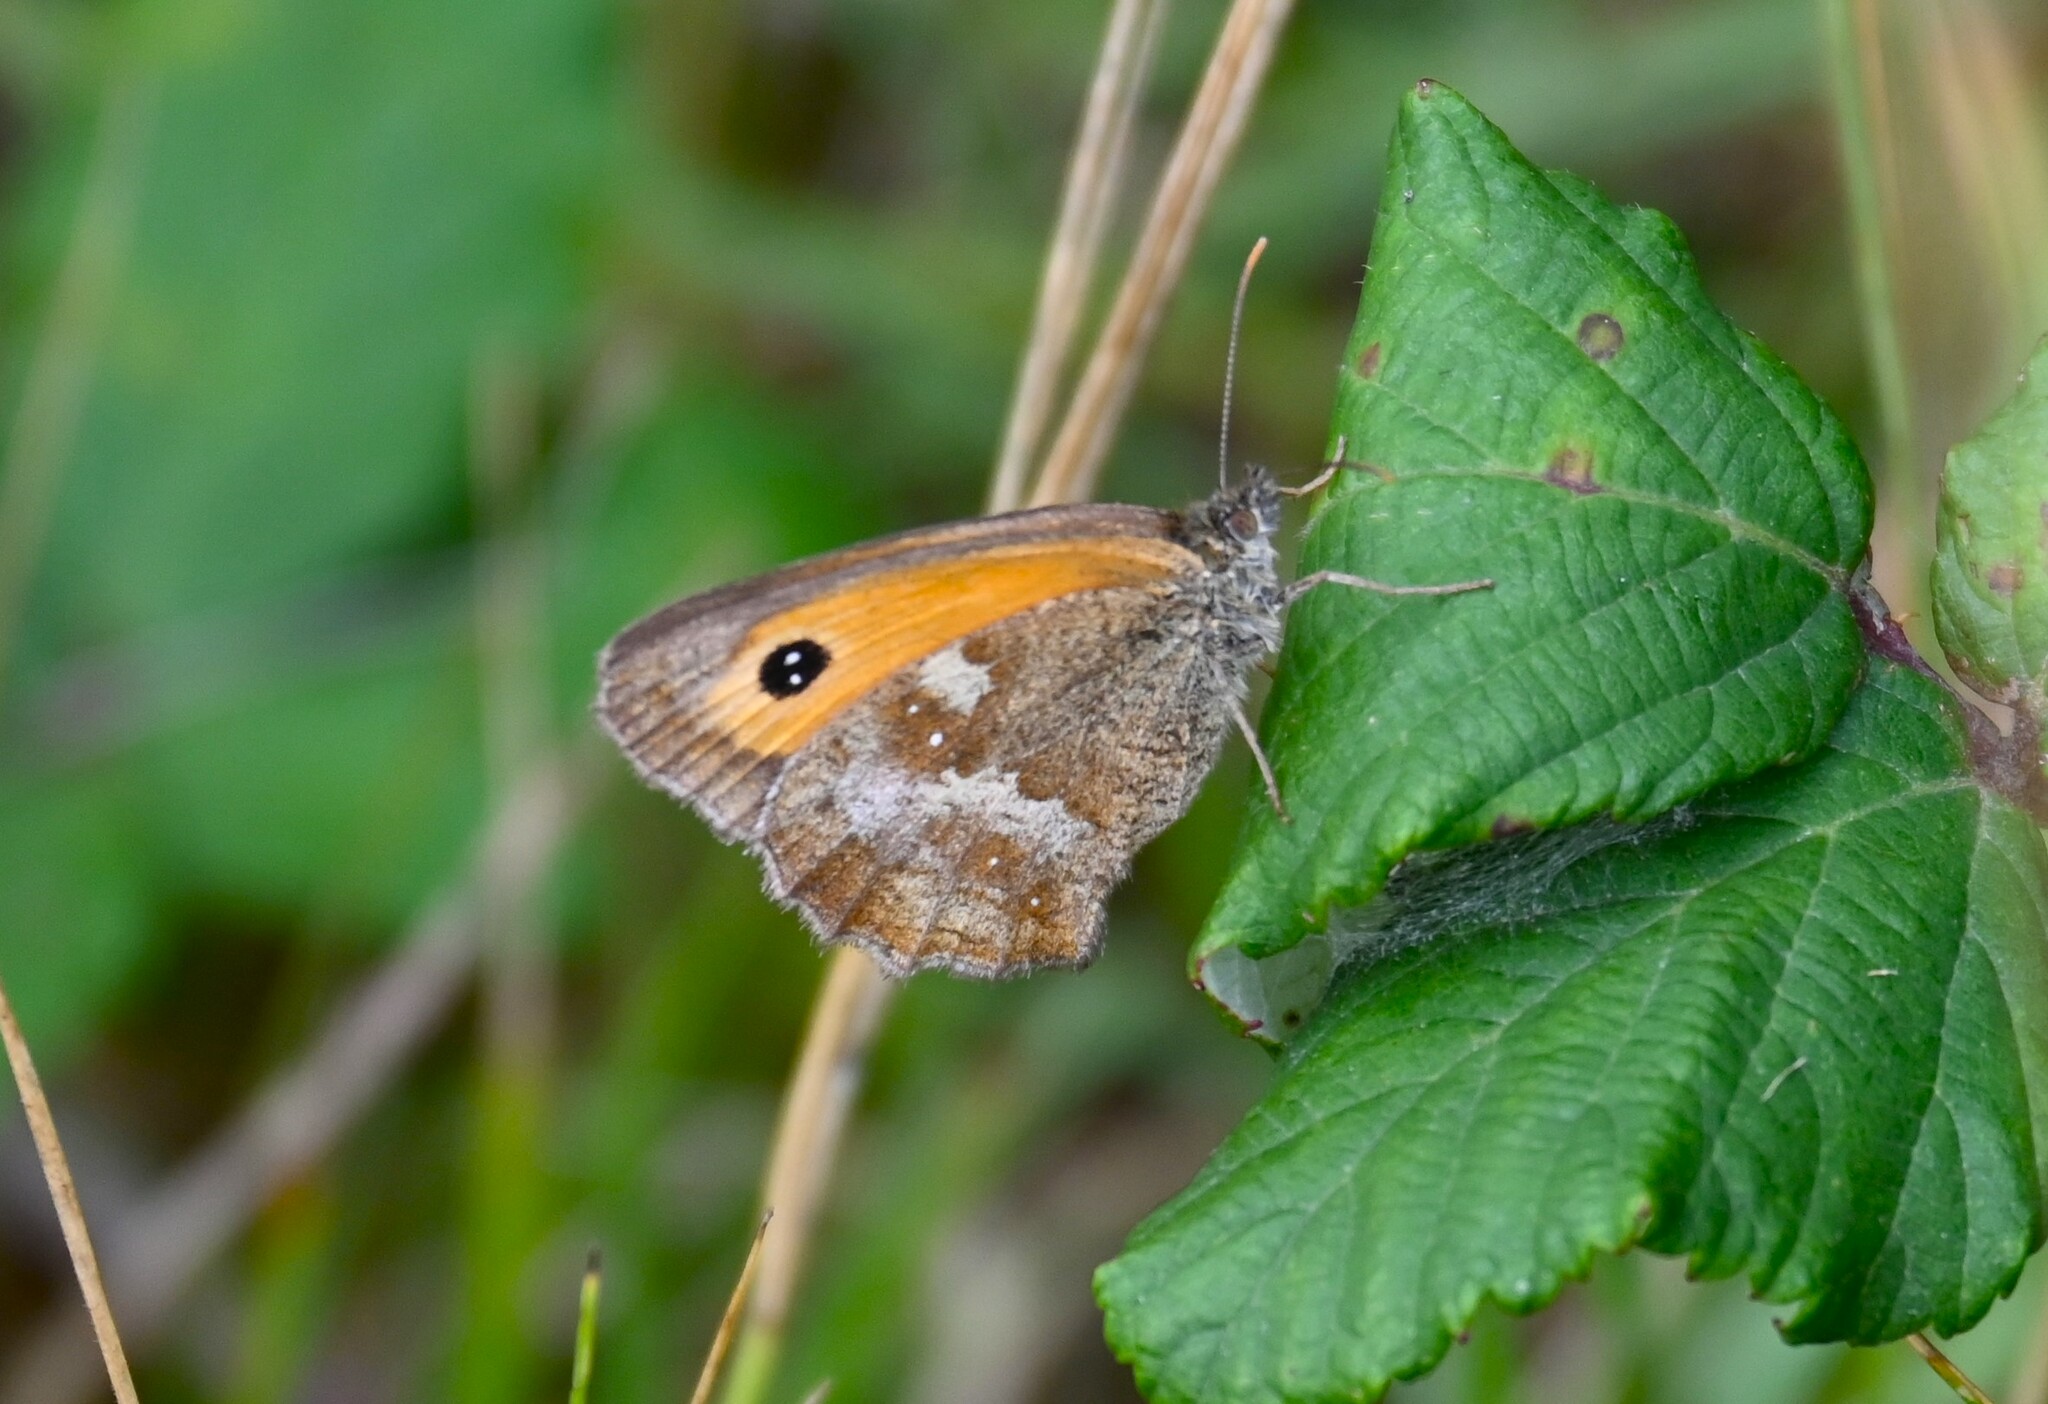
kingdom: Animalia
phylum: Arthropoda
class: Insecta
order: Lepidoptera
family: Nymphalidae
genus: Pyronia
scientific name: Pyronia tithonus
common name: Gatekeeper
